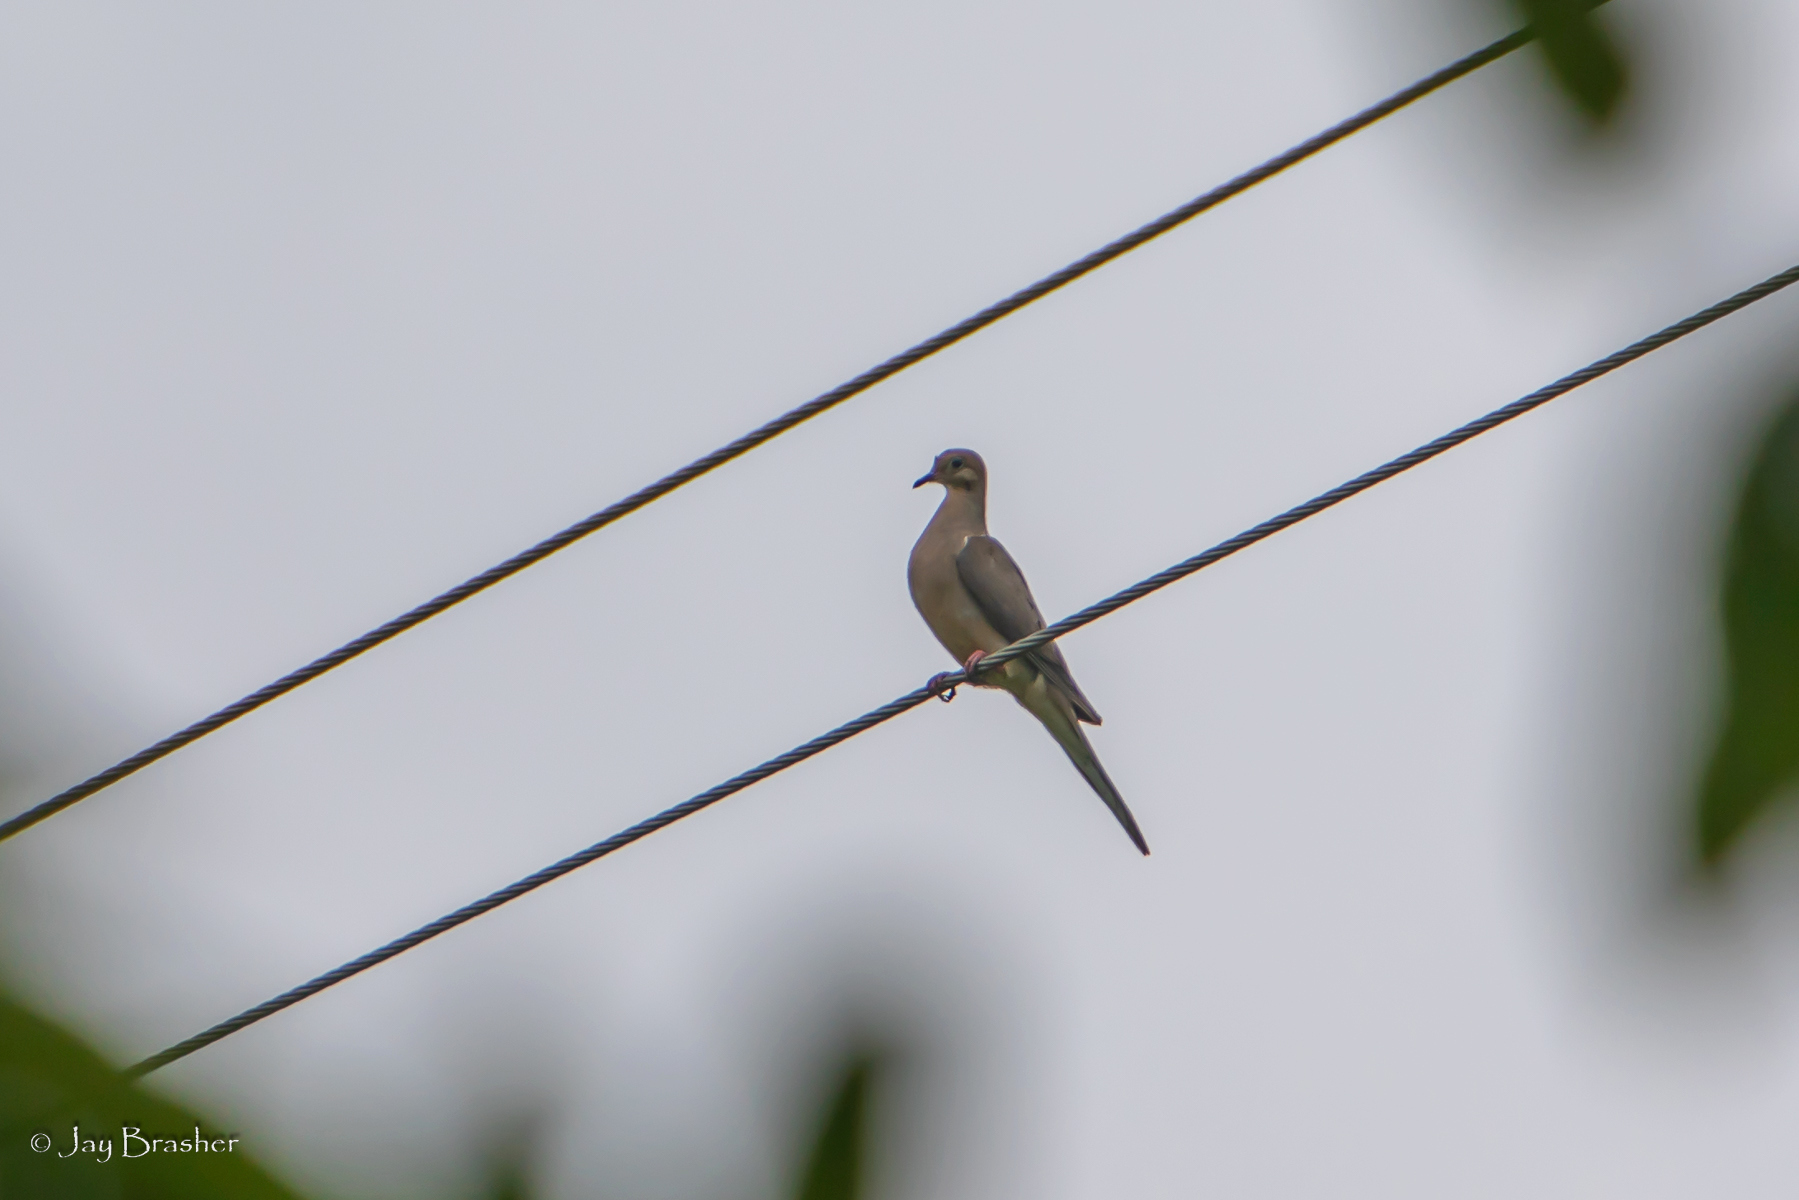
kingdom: Animalia
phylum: Chordata
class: Aves
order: Columbiformes
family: Columbidae
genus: Zenaida
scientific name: Zenaida macroura
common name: Mourning dove
